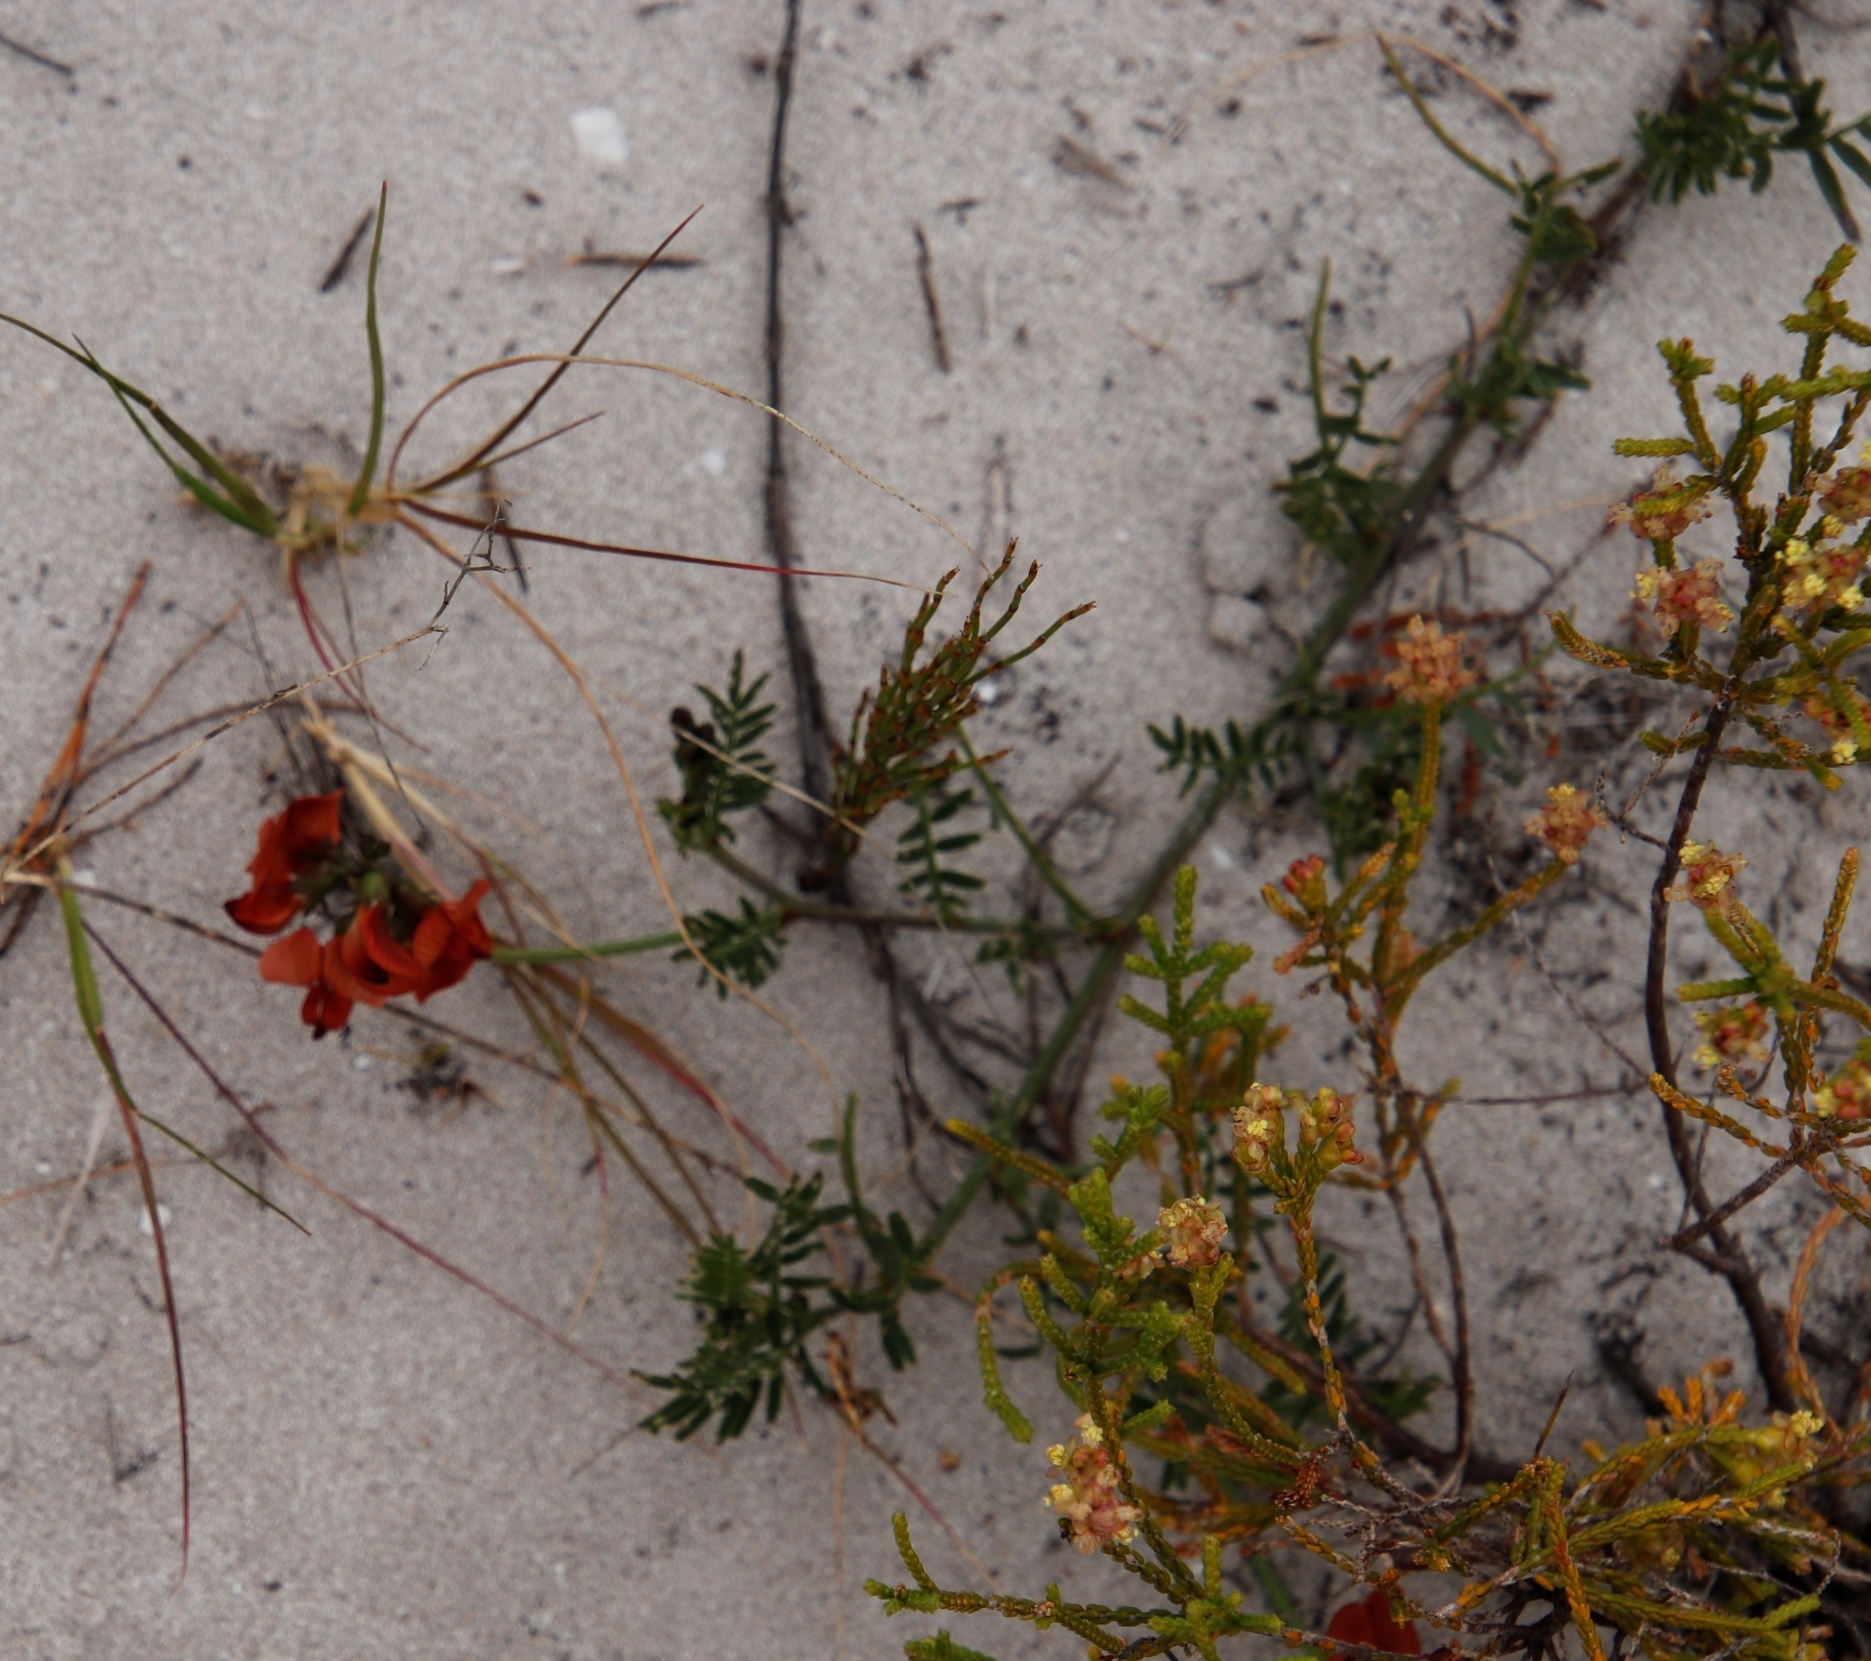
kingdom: Plantae
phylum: Tracheophyta
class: Magnoliopsida
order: Fabales
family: Fabaceae
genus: Lessertia
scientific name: Lessertia miniata
